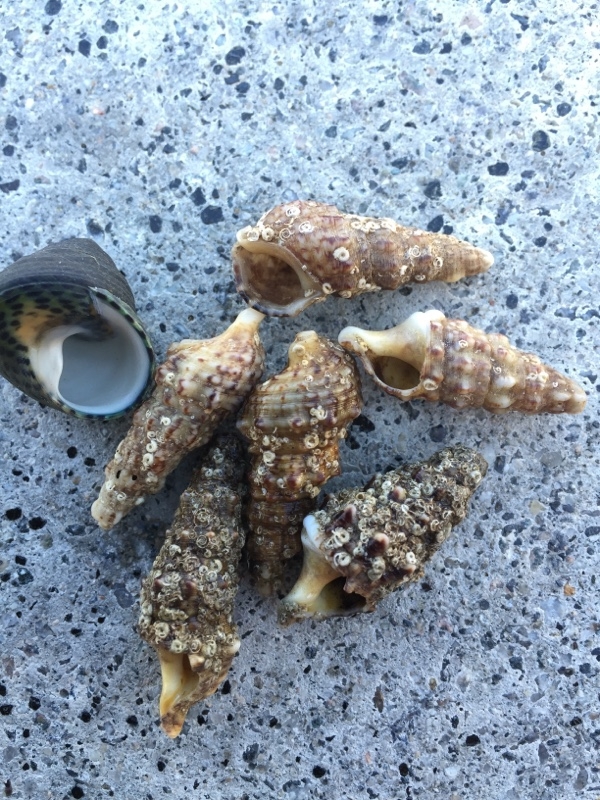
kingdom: Animalia
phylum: Mollusca
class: Gastropoda
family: Cerithiidae
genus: Cerithium
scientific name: Cerithium vulgatum
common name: European cerith
